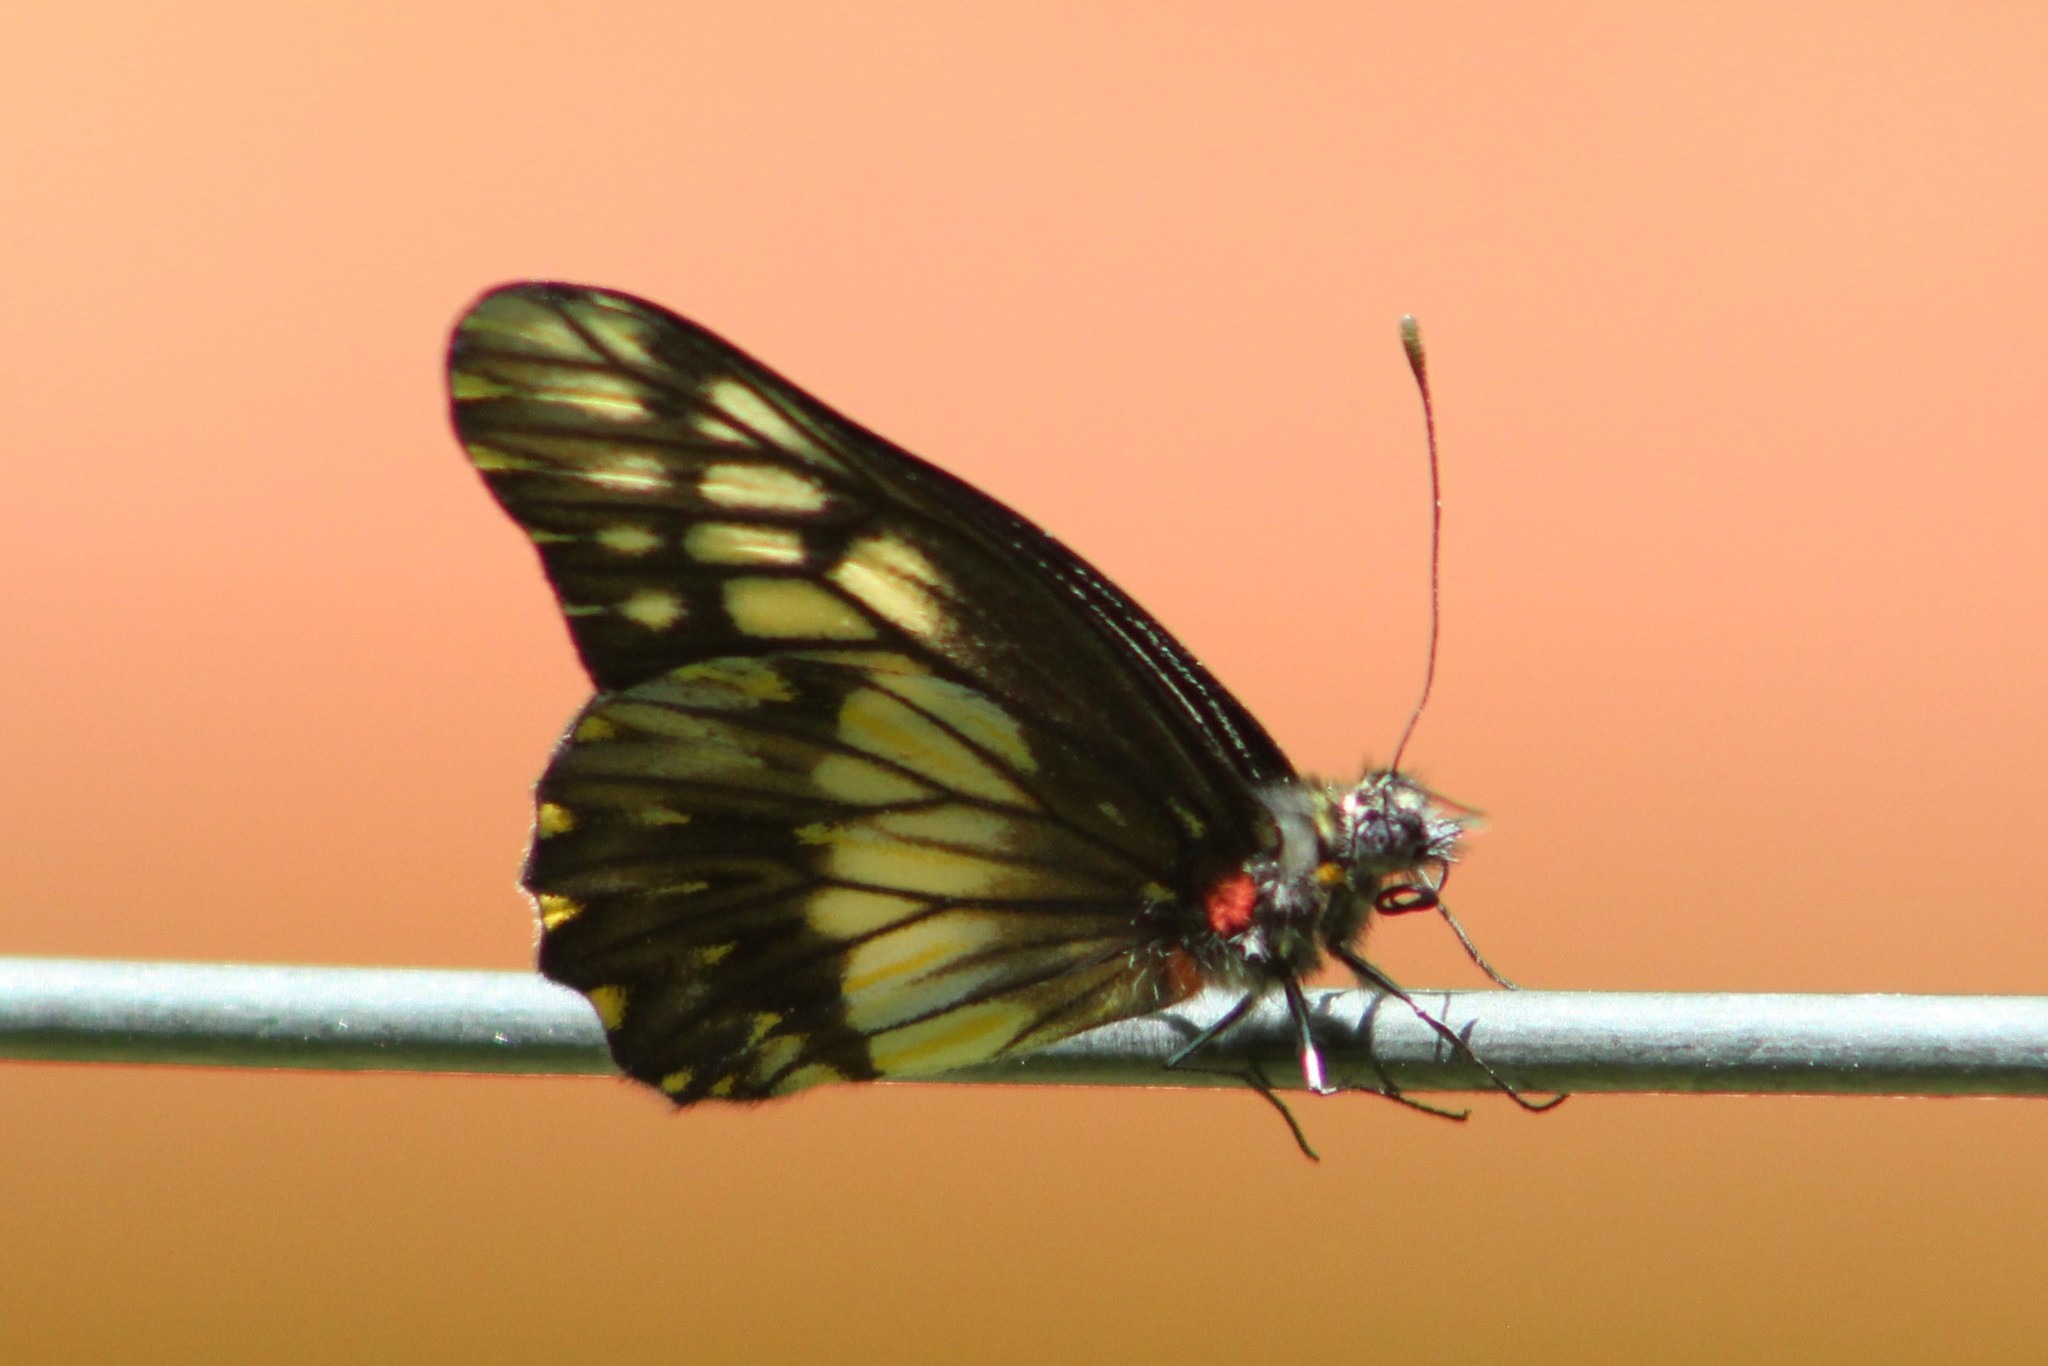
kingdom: Animalia
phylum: Arthropoda
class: Insecta
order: Lepidoptera
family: Pieridae
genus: Archonias
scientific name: Archonias nimbice
